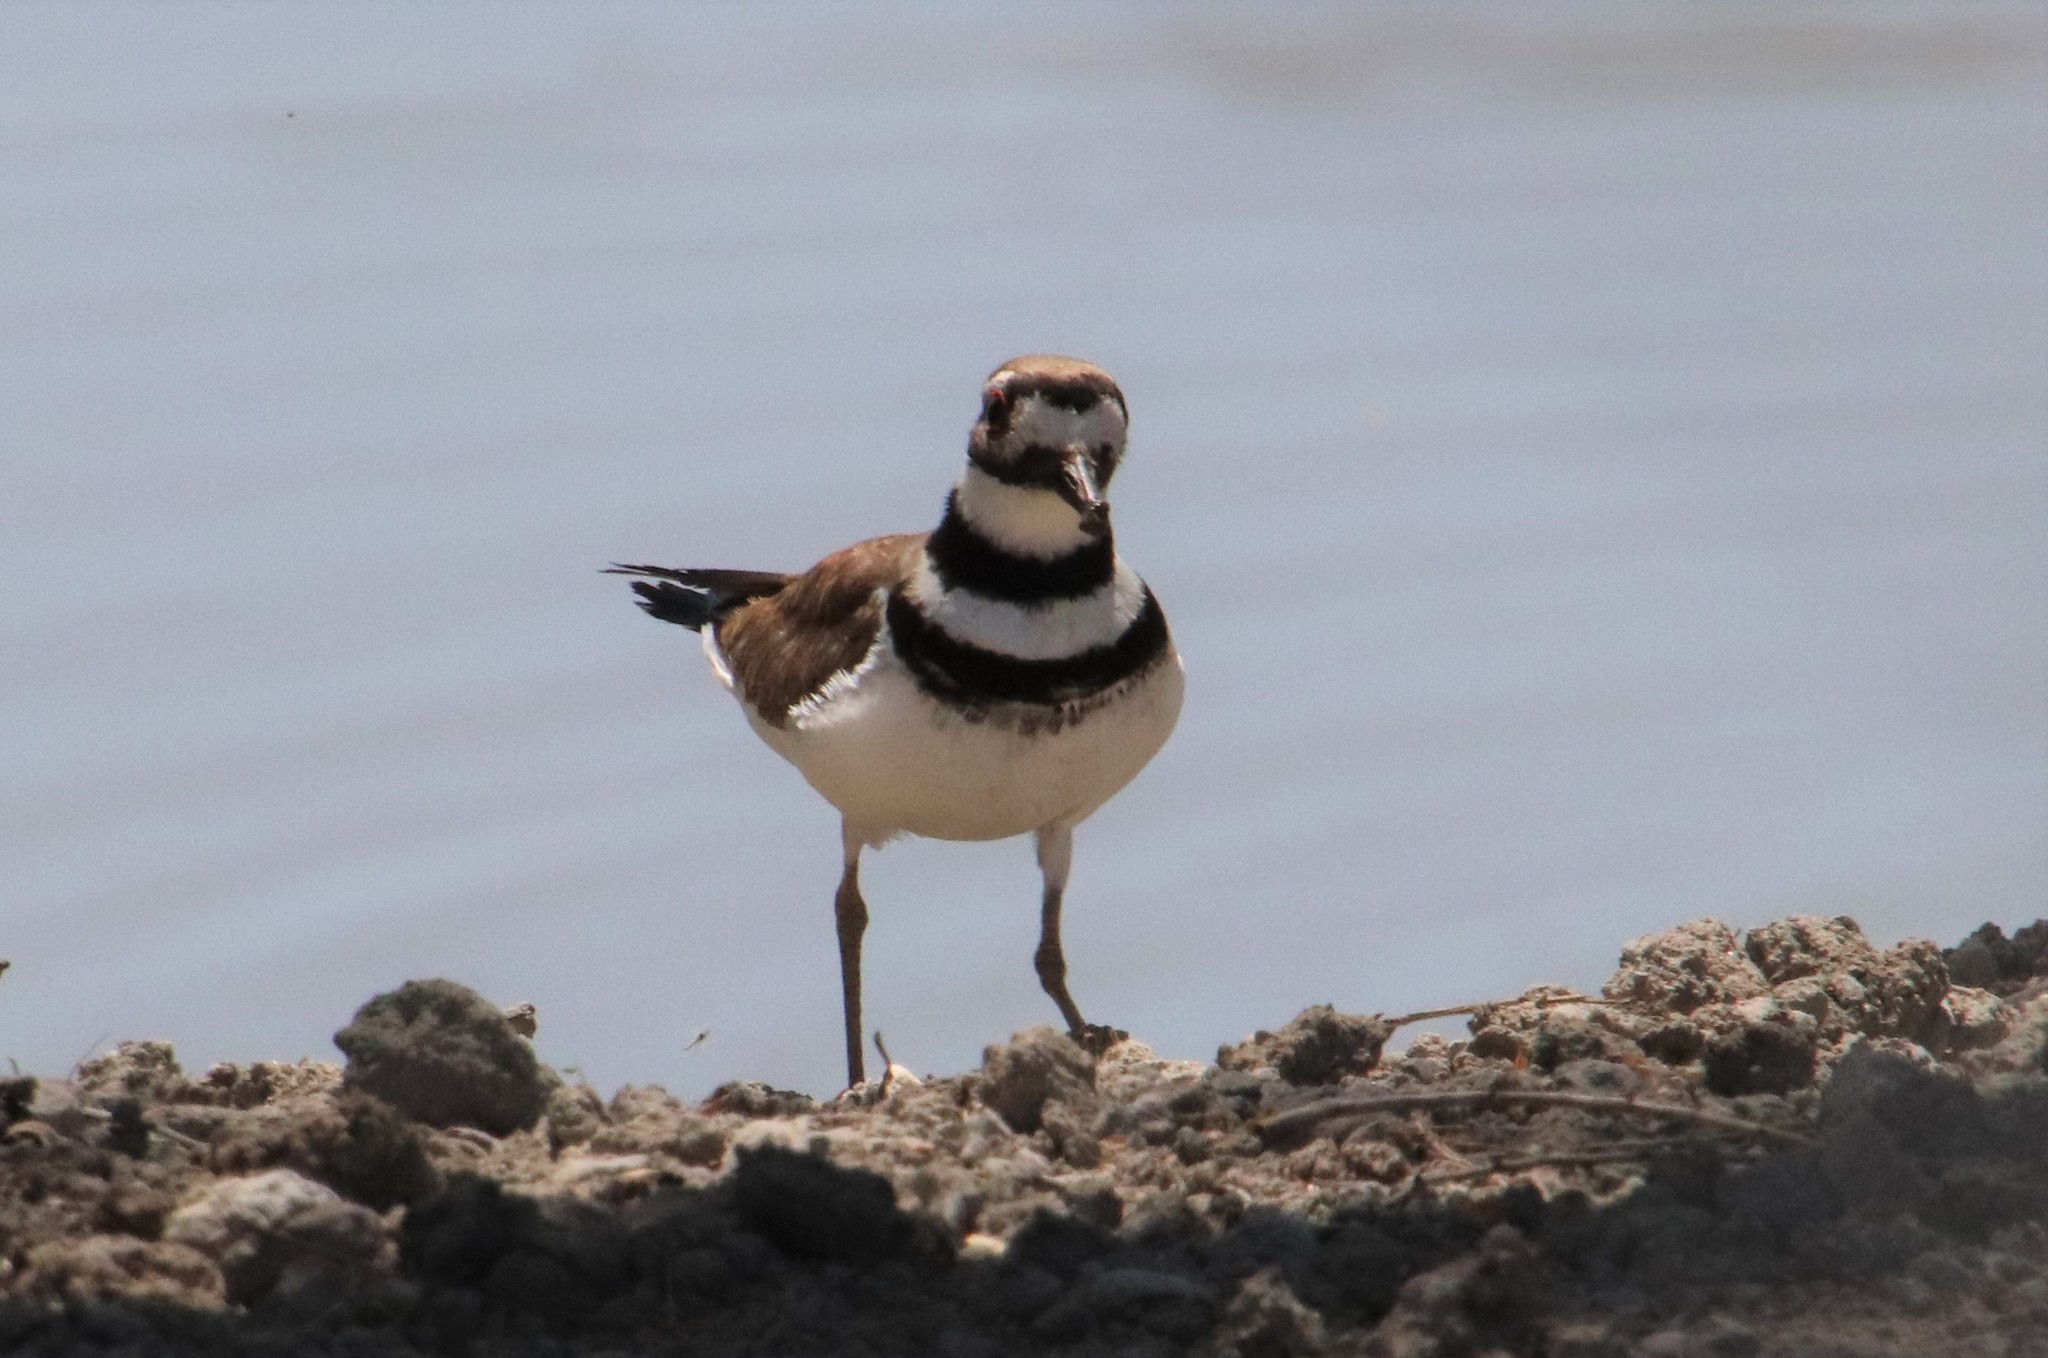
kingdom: Animalia
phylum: Chordata
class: Aves
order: Charadriiformes
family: Charadriidae
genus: Charadrius
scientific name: Charadrius vociferus
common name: Killdeer
